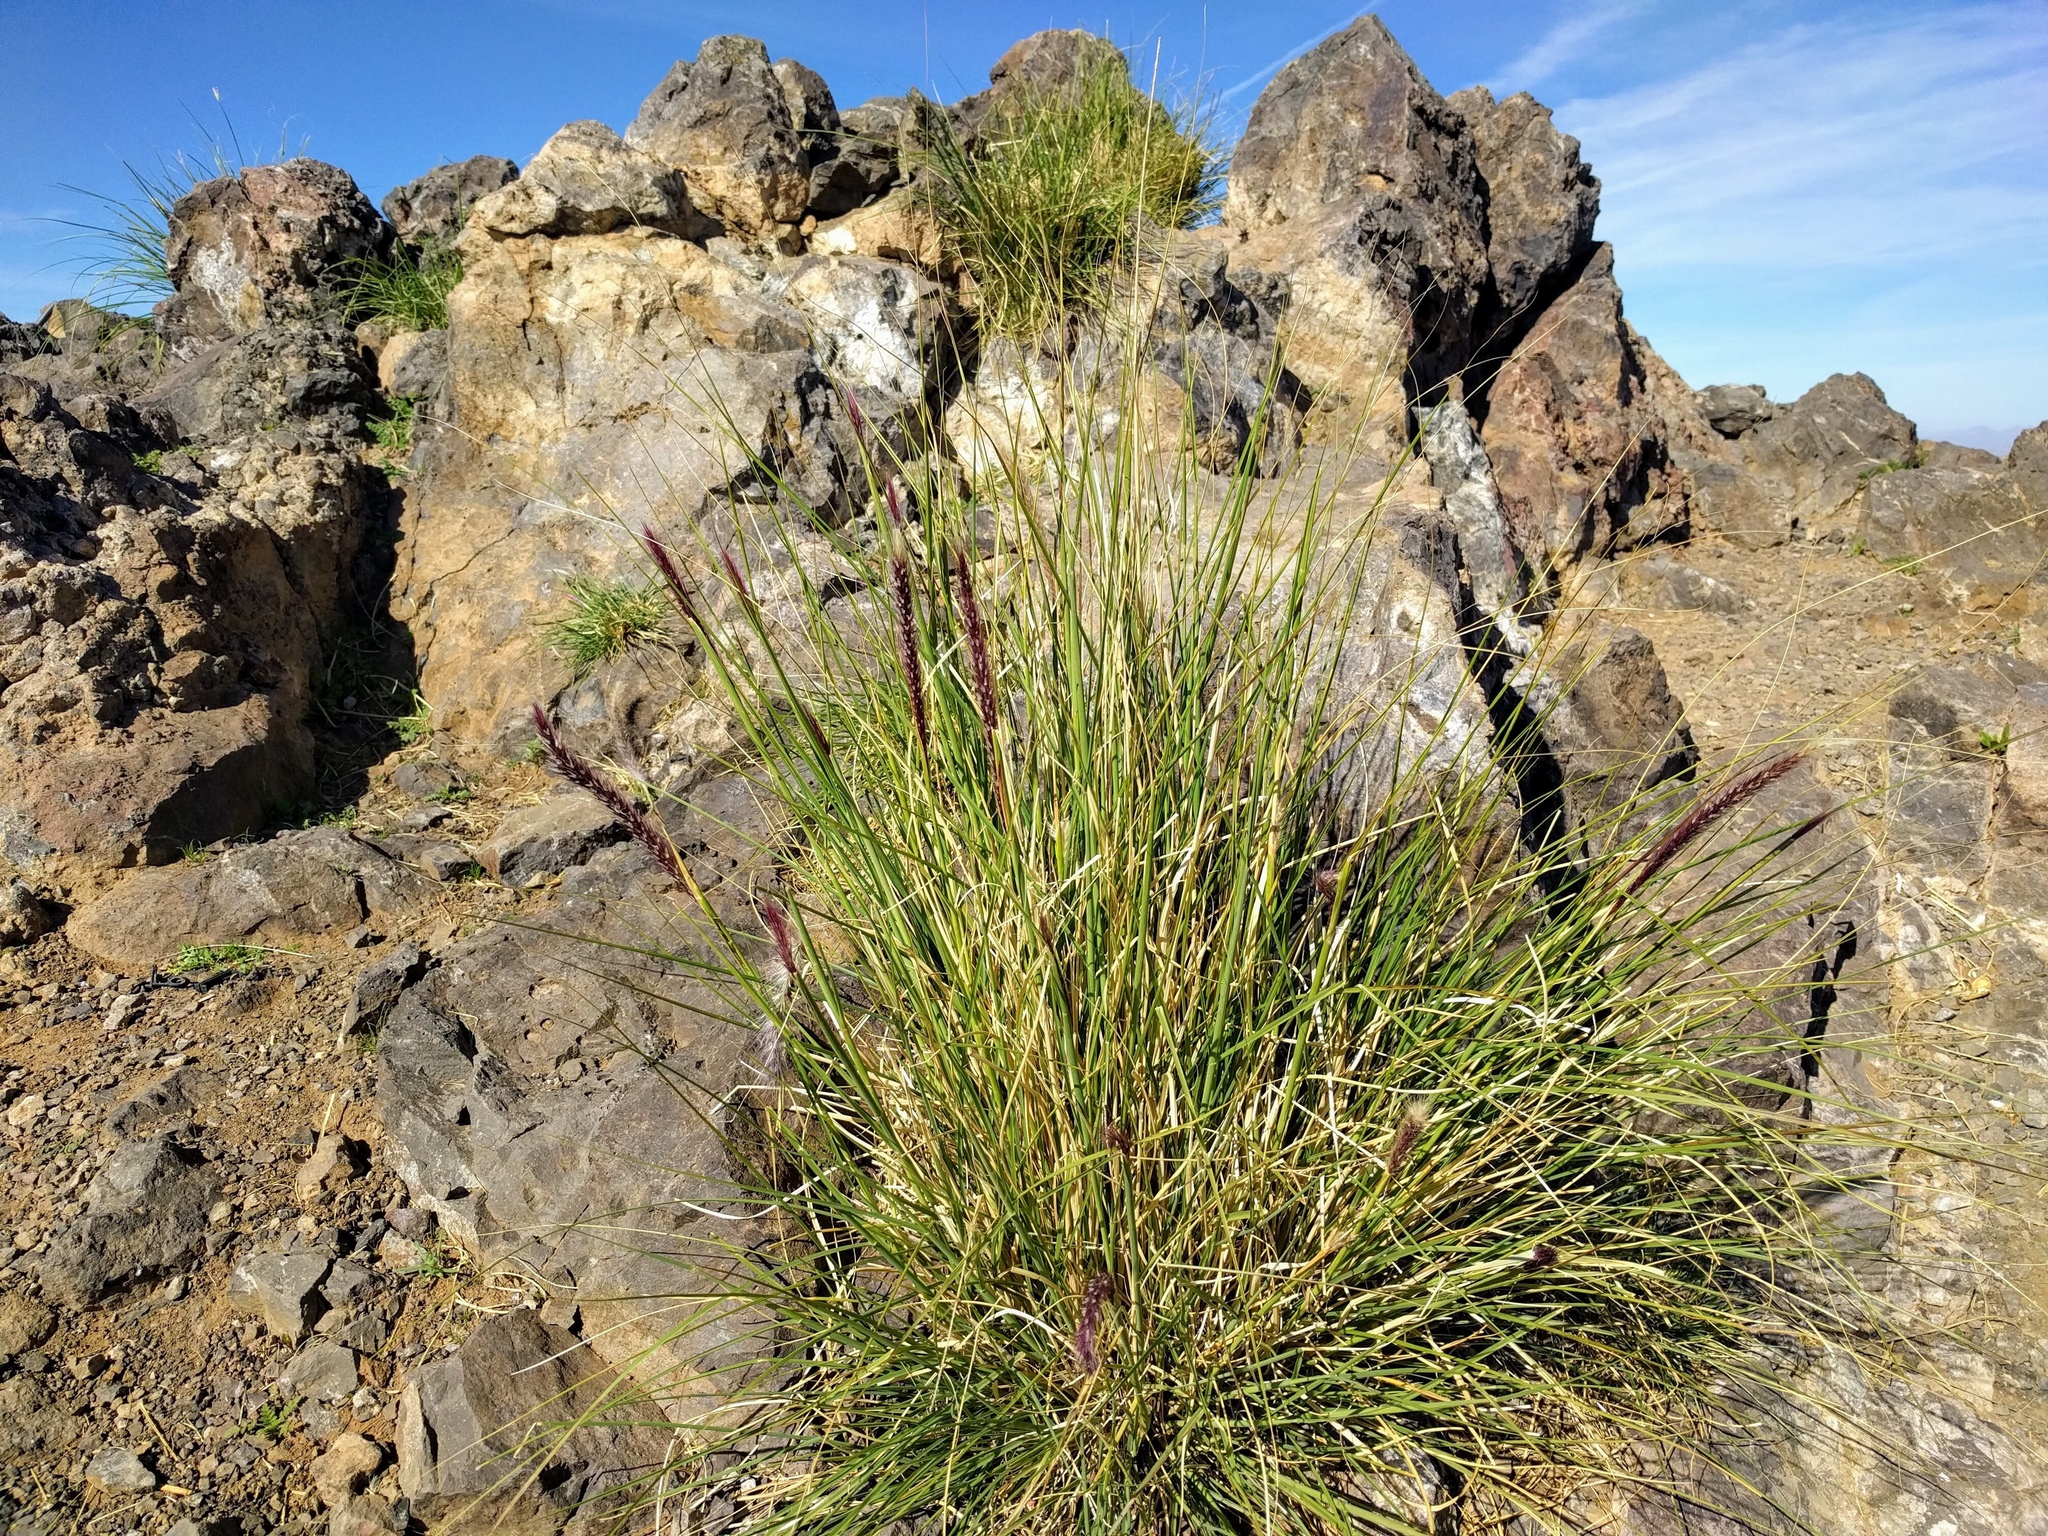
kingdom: Plantae
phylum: Tracheophyta
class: Liliopsida
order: Poales
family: Poaceae
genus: Cenchrus
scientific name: Cenchrus setaceus
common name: Crimson fountaingrass
